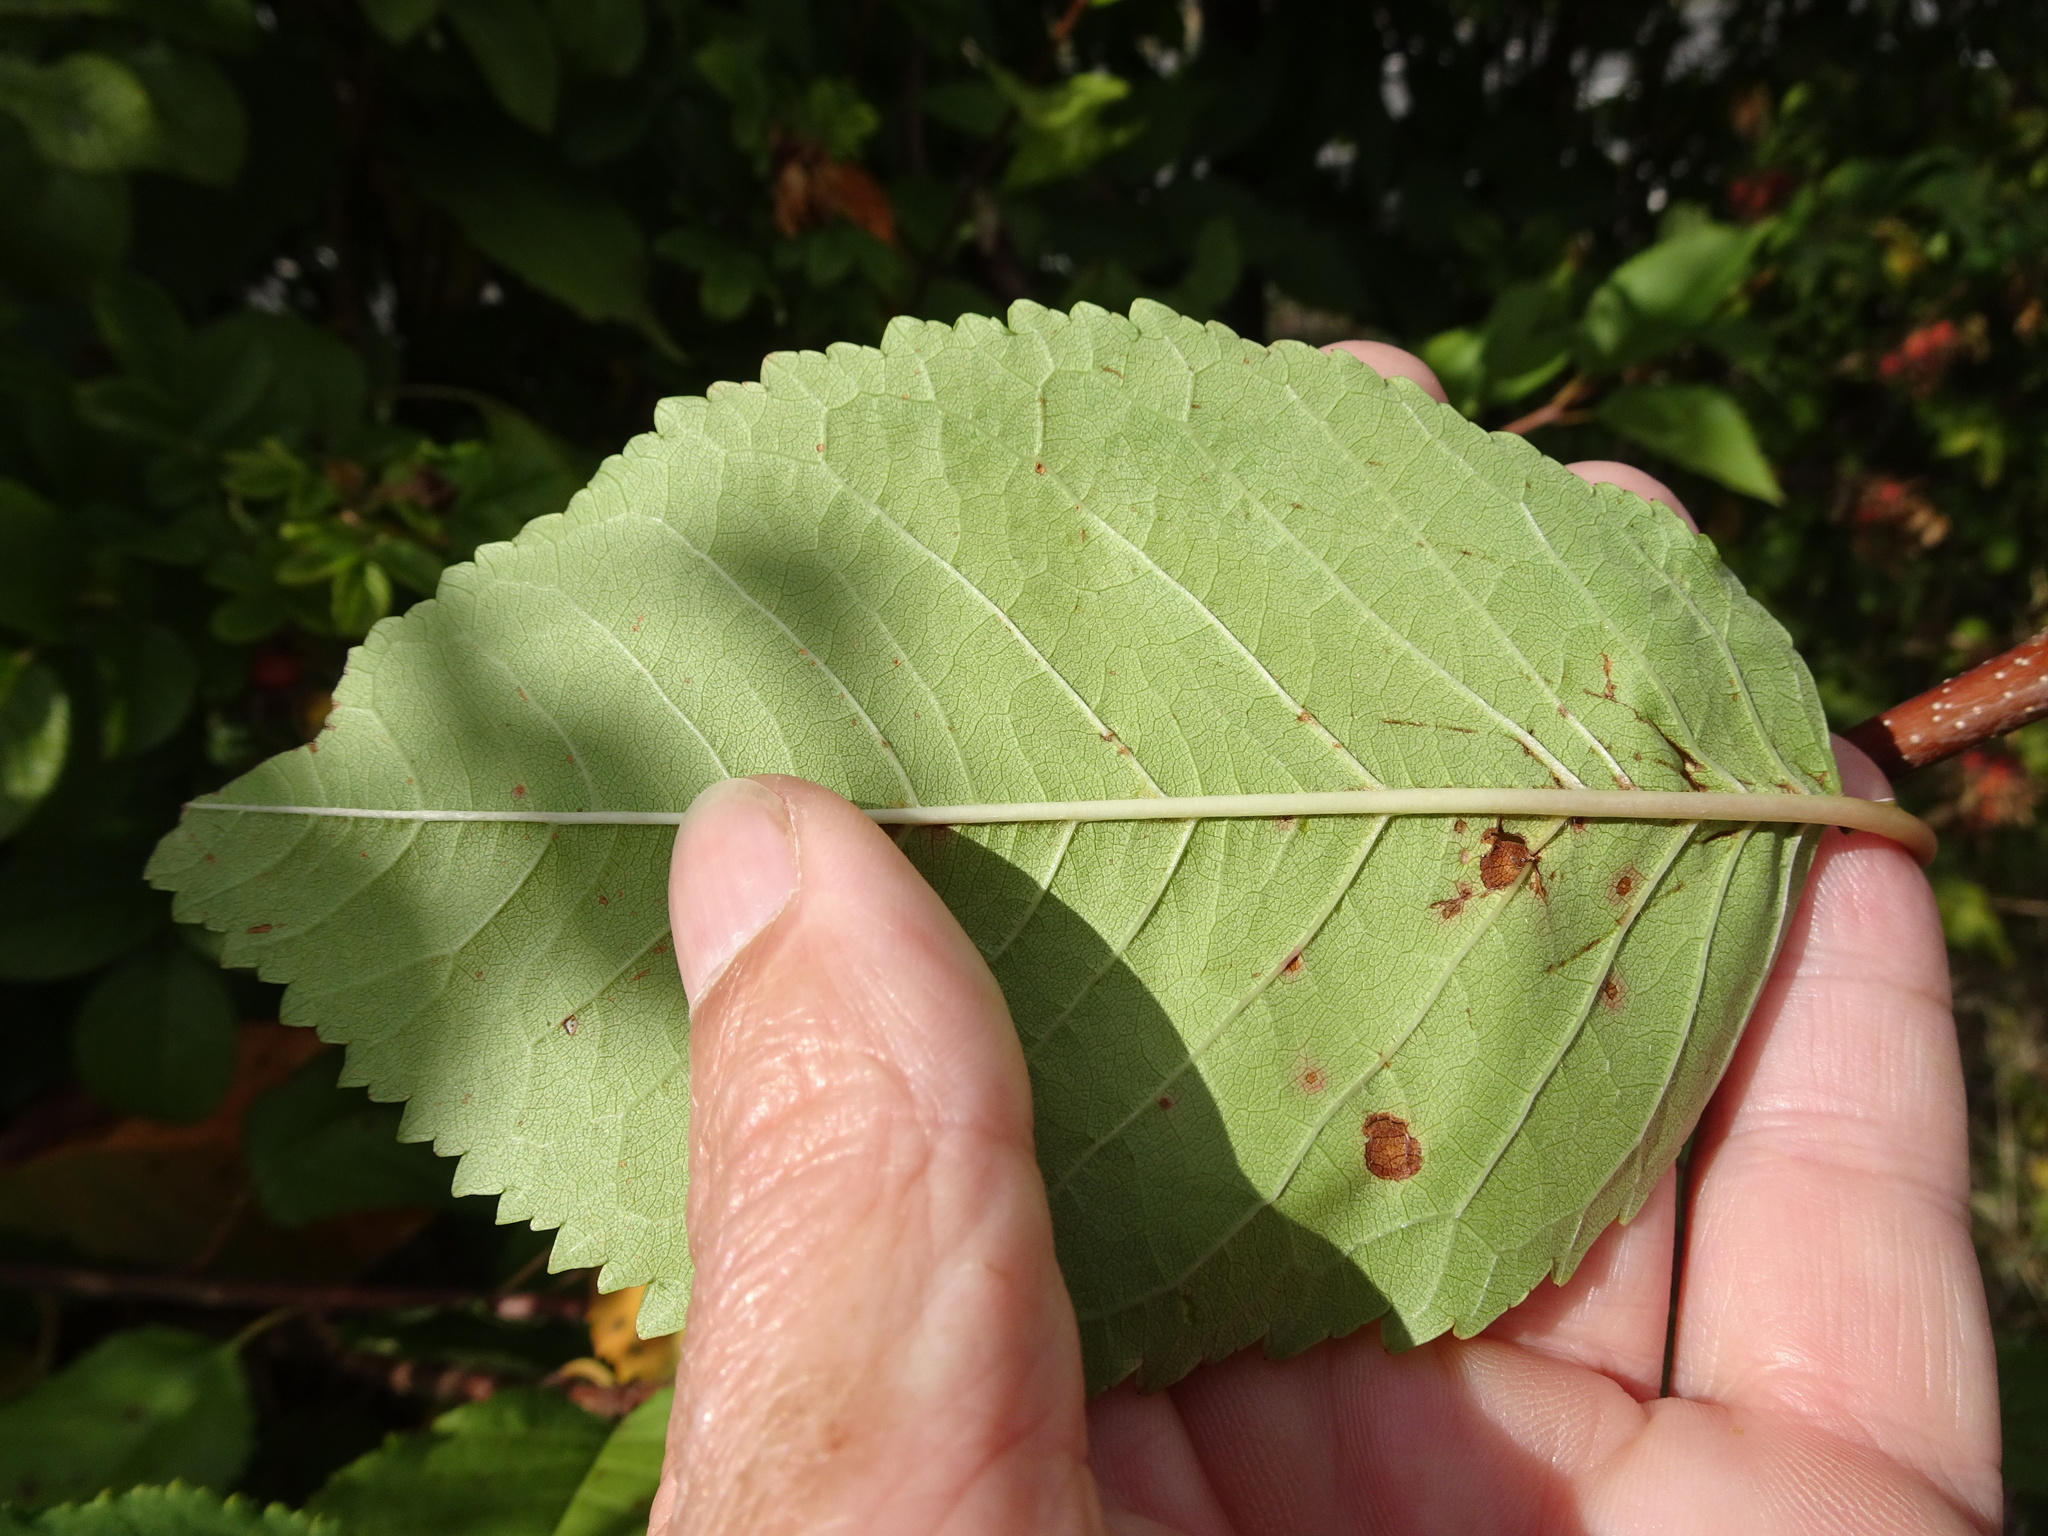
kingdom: Plantae
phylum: Tracheophyta
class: Magnoliopsida
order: Rosales
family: Rosaceae
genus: Prunus
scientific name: Prunus avium
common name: Sweet cherry
